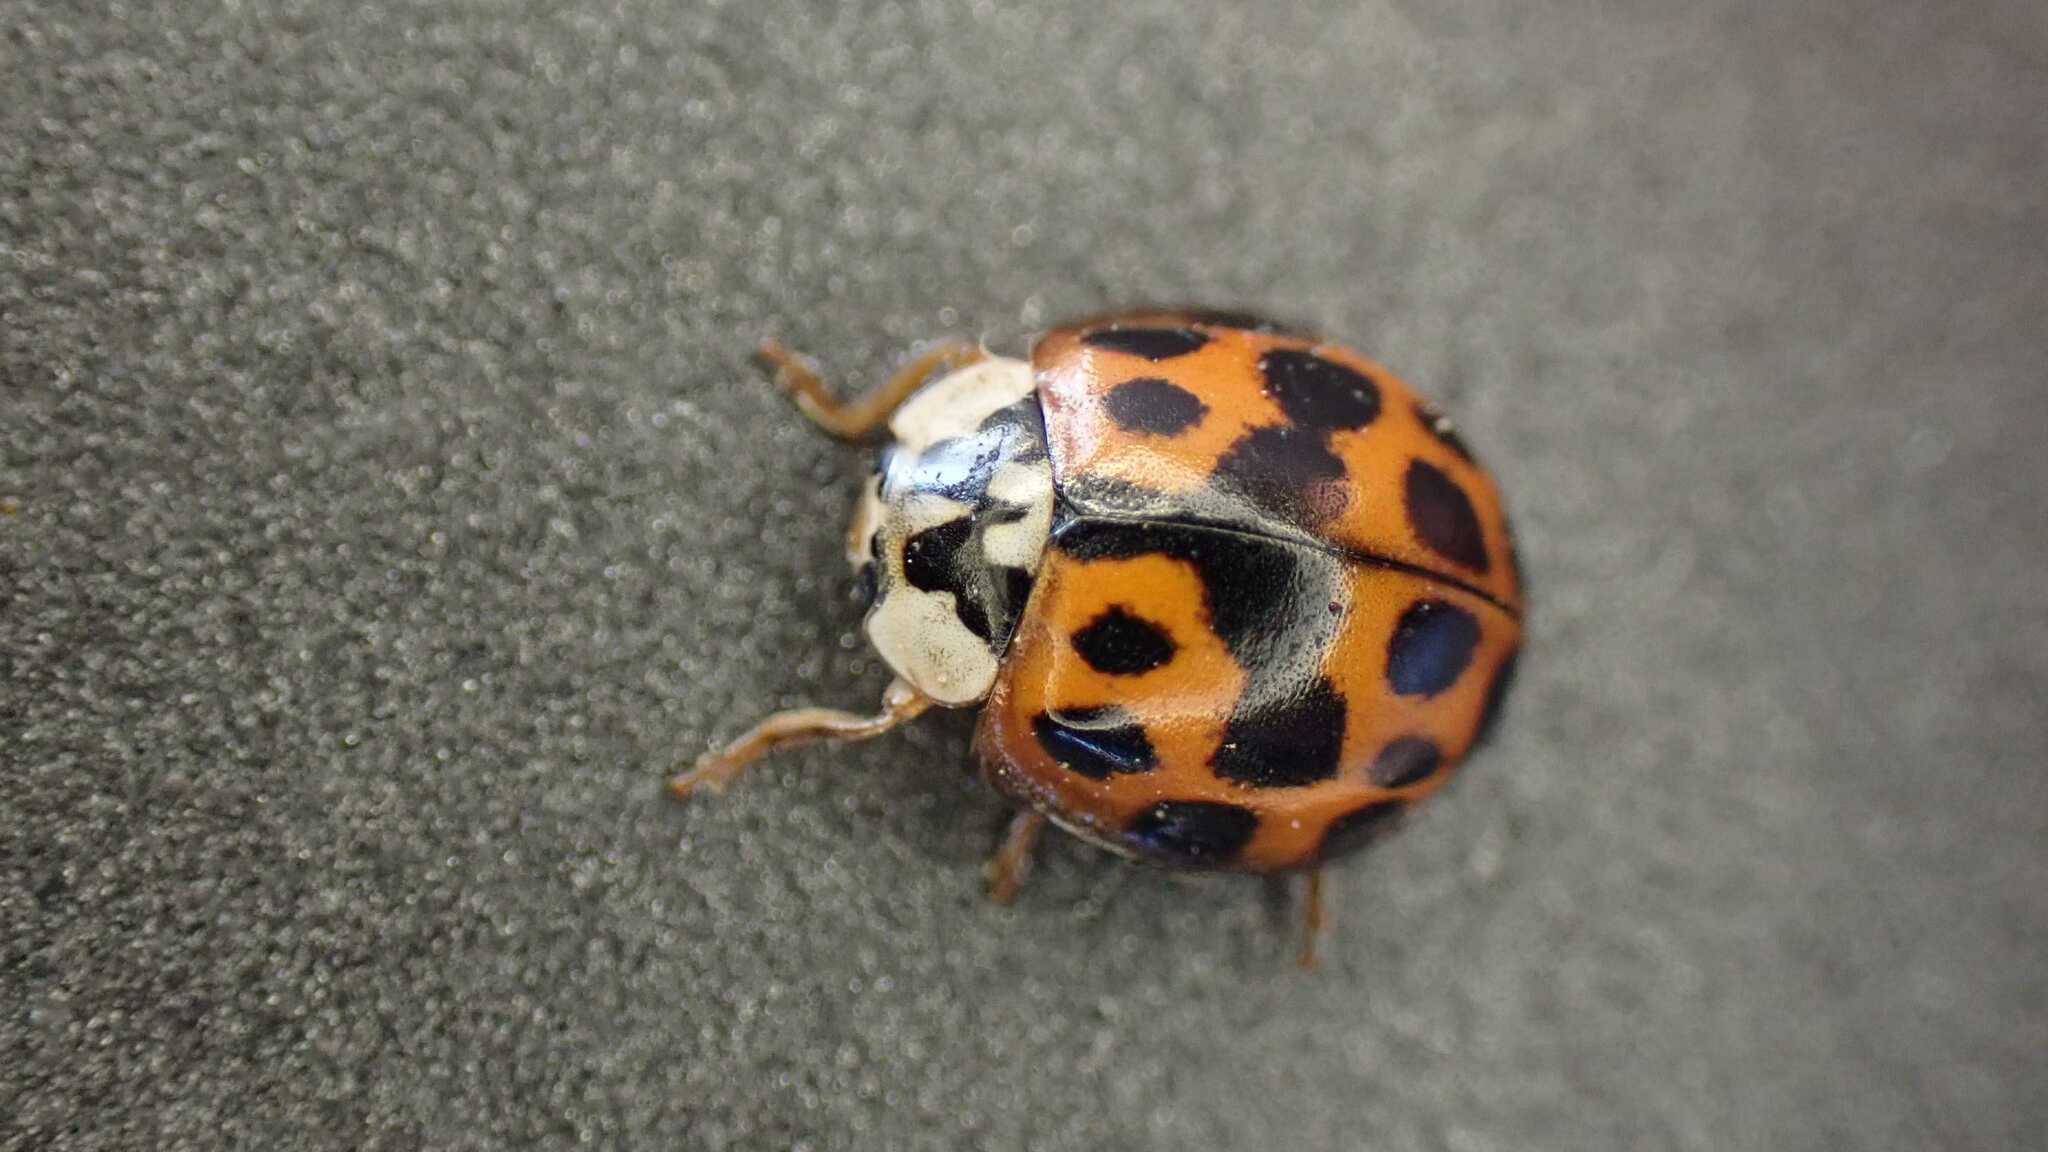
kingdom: Animalia
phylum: Arthropoda
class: Insecta
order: Coleoptera
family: Coccinellidae
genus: Harmonia
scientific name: Harmonia axyridis
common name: Harlequin ladybird
